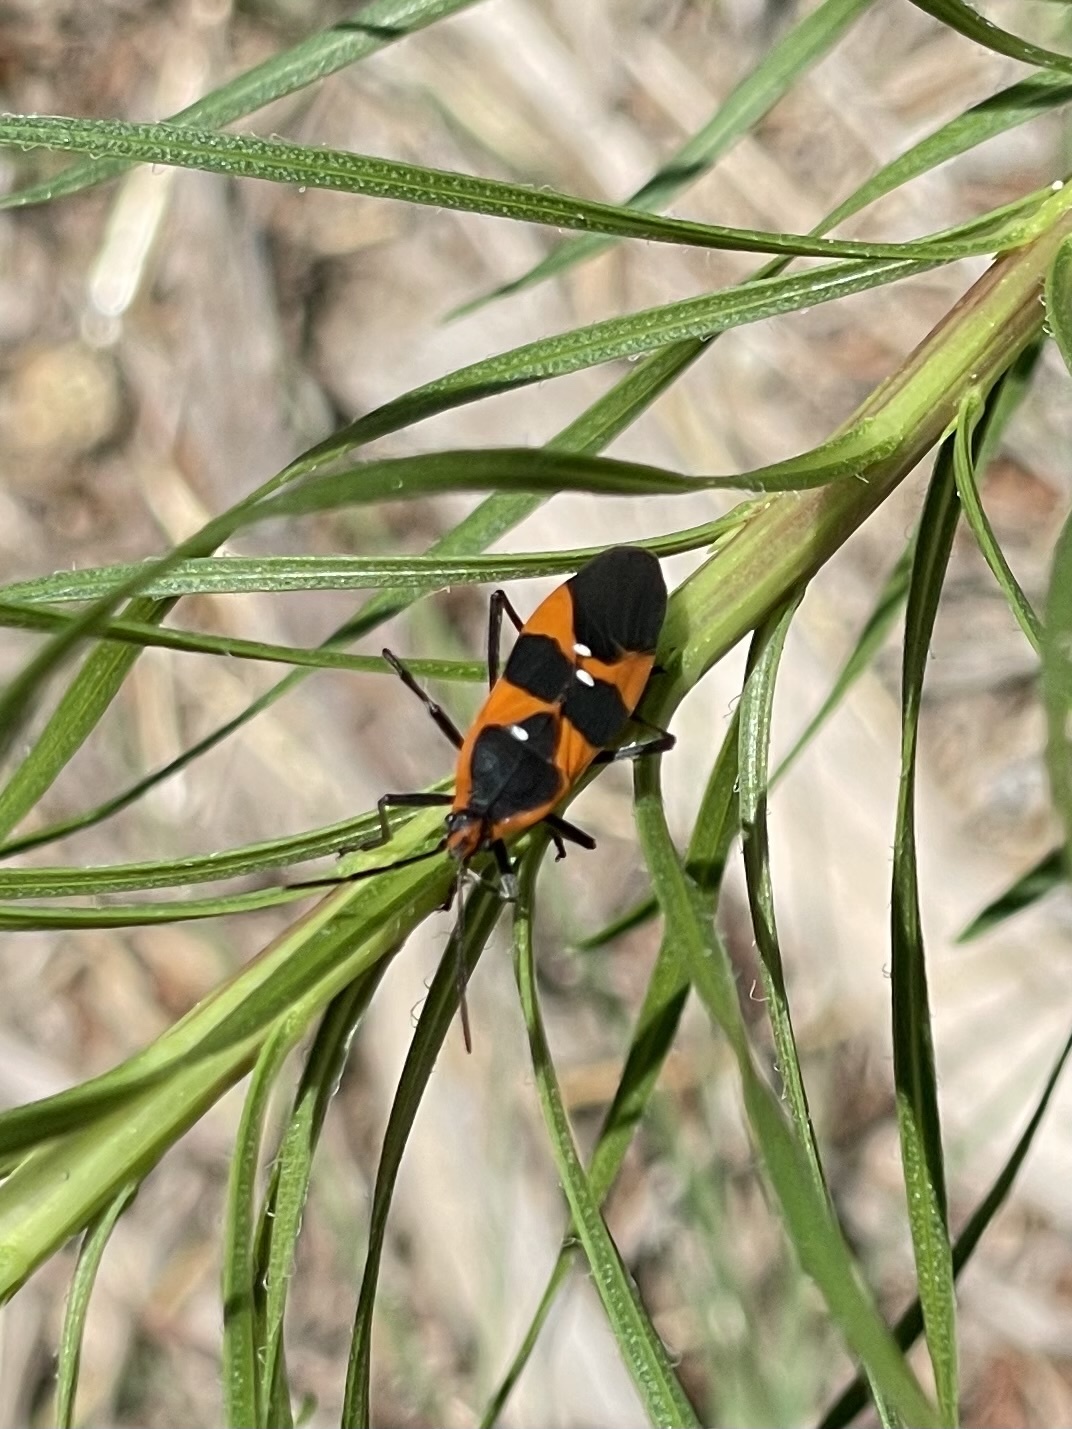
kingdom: Animalia
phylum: Arthropoda
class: Insecta
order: Hemiptera
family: Lygaeidae
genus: Oncopeltus
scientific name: Oncopeltus fasciatus
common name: Large milkweed bug
